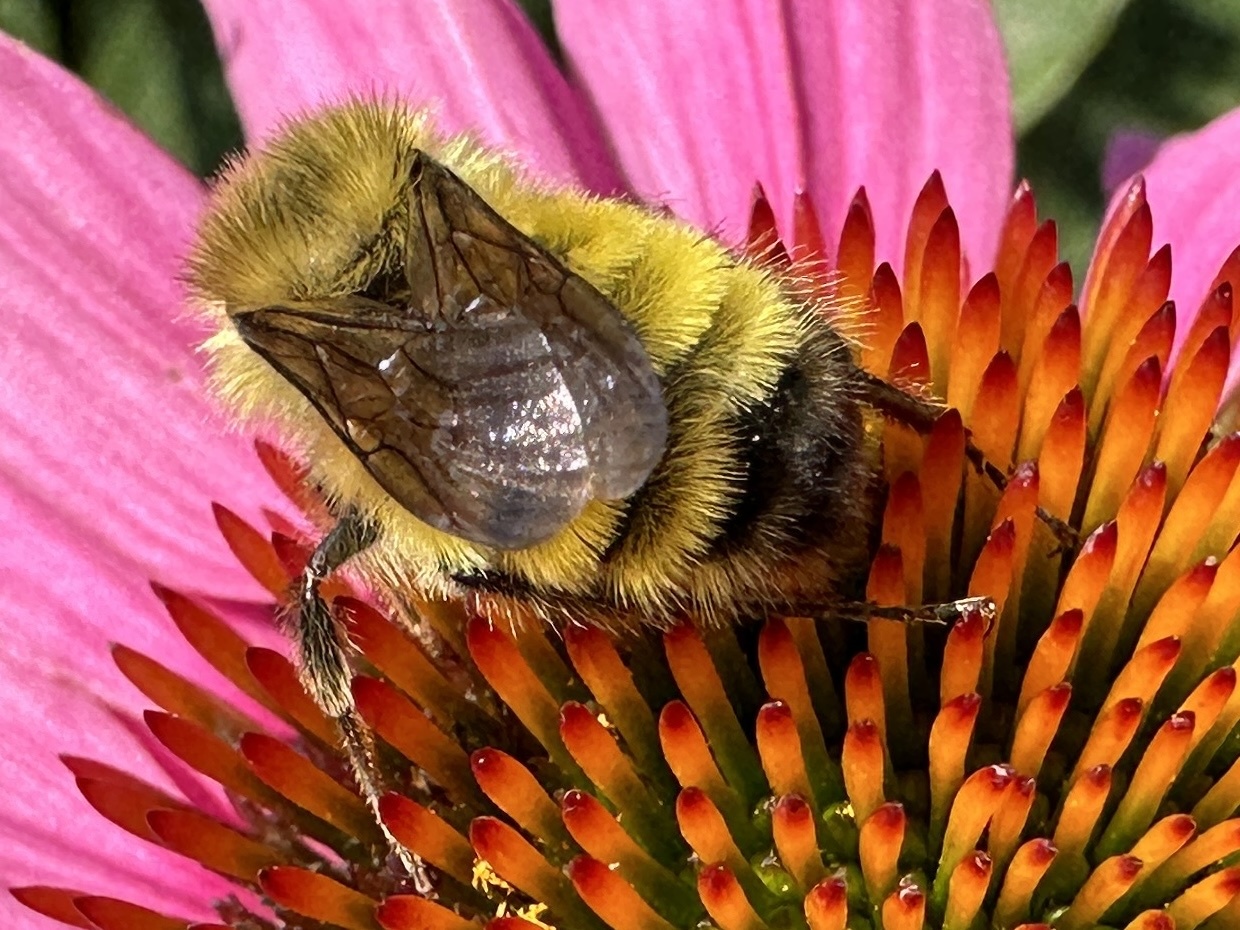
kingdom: Animalia
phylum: Arthropoda
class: Insecta
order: Hymenoptera
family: Apidae
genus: Bombus
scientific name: Bombus vandykei
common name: Van dyke bumble bee
